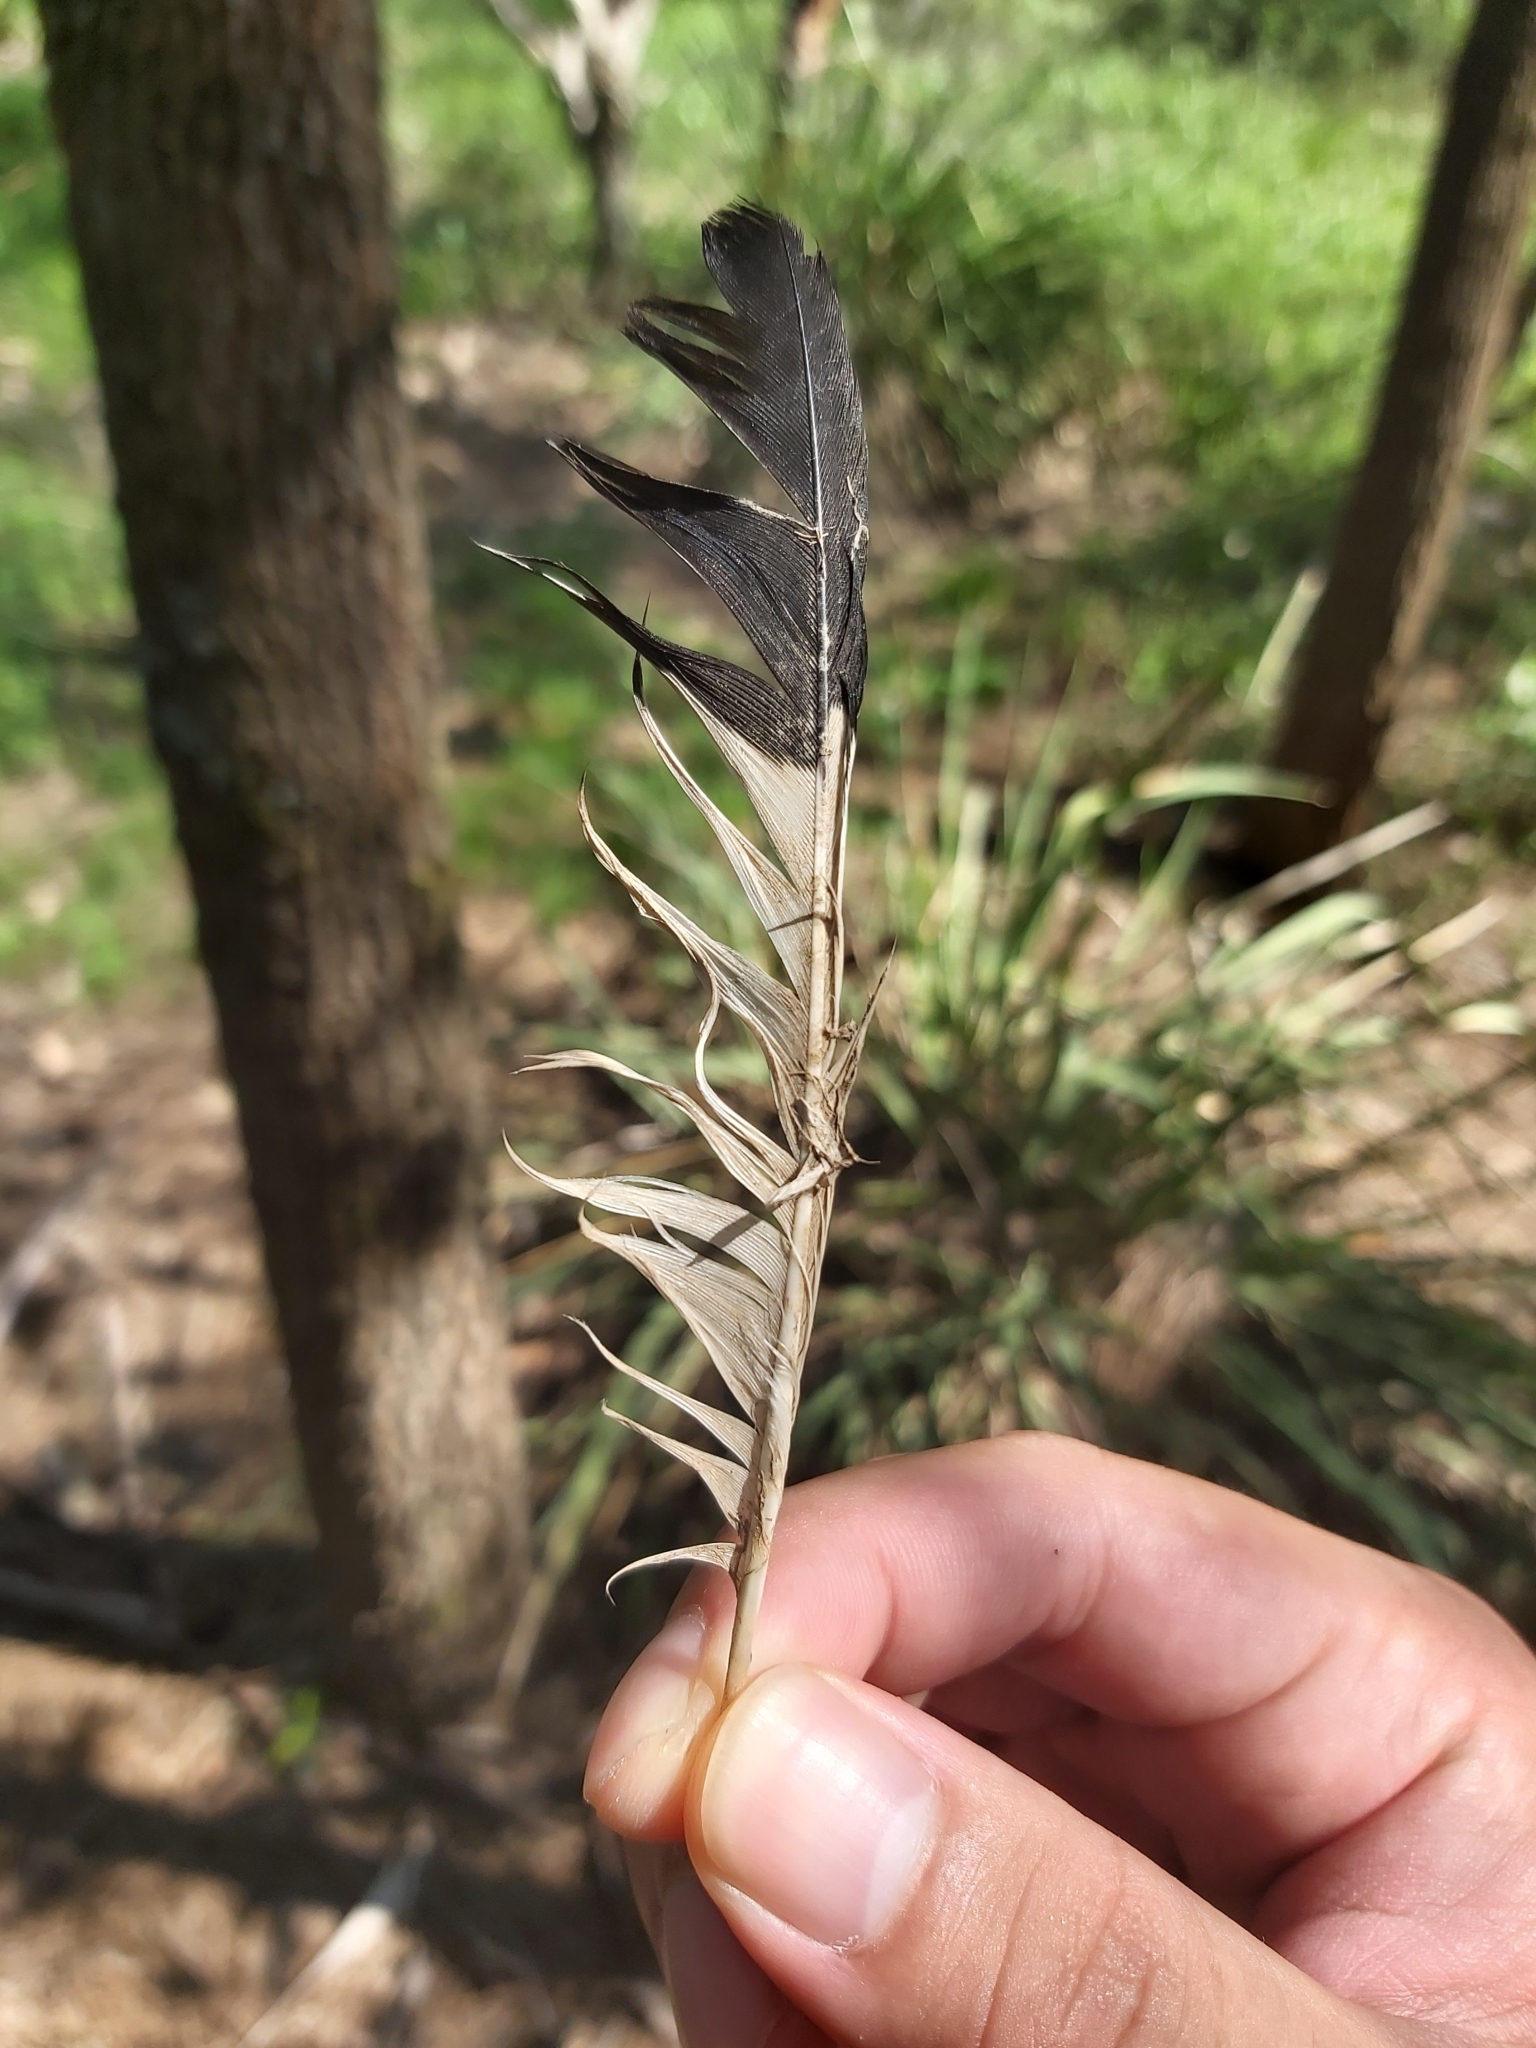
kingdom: Animalia
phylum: Chordata
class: Aves
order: Passeriformes
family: Sturnidae
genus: Acridotheres
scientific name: Acridotheres tristis
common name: Common myna
